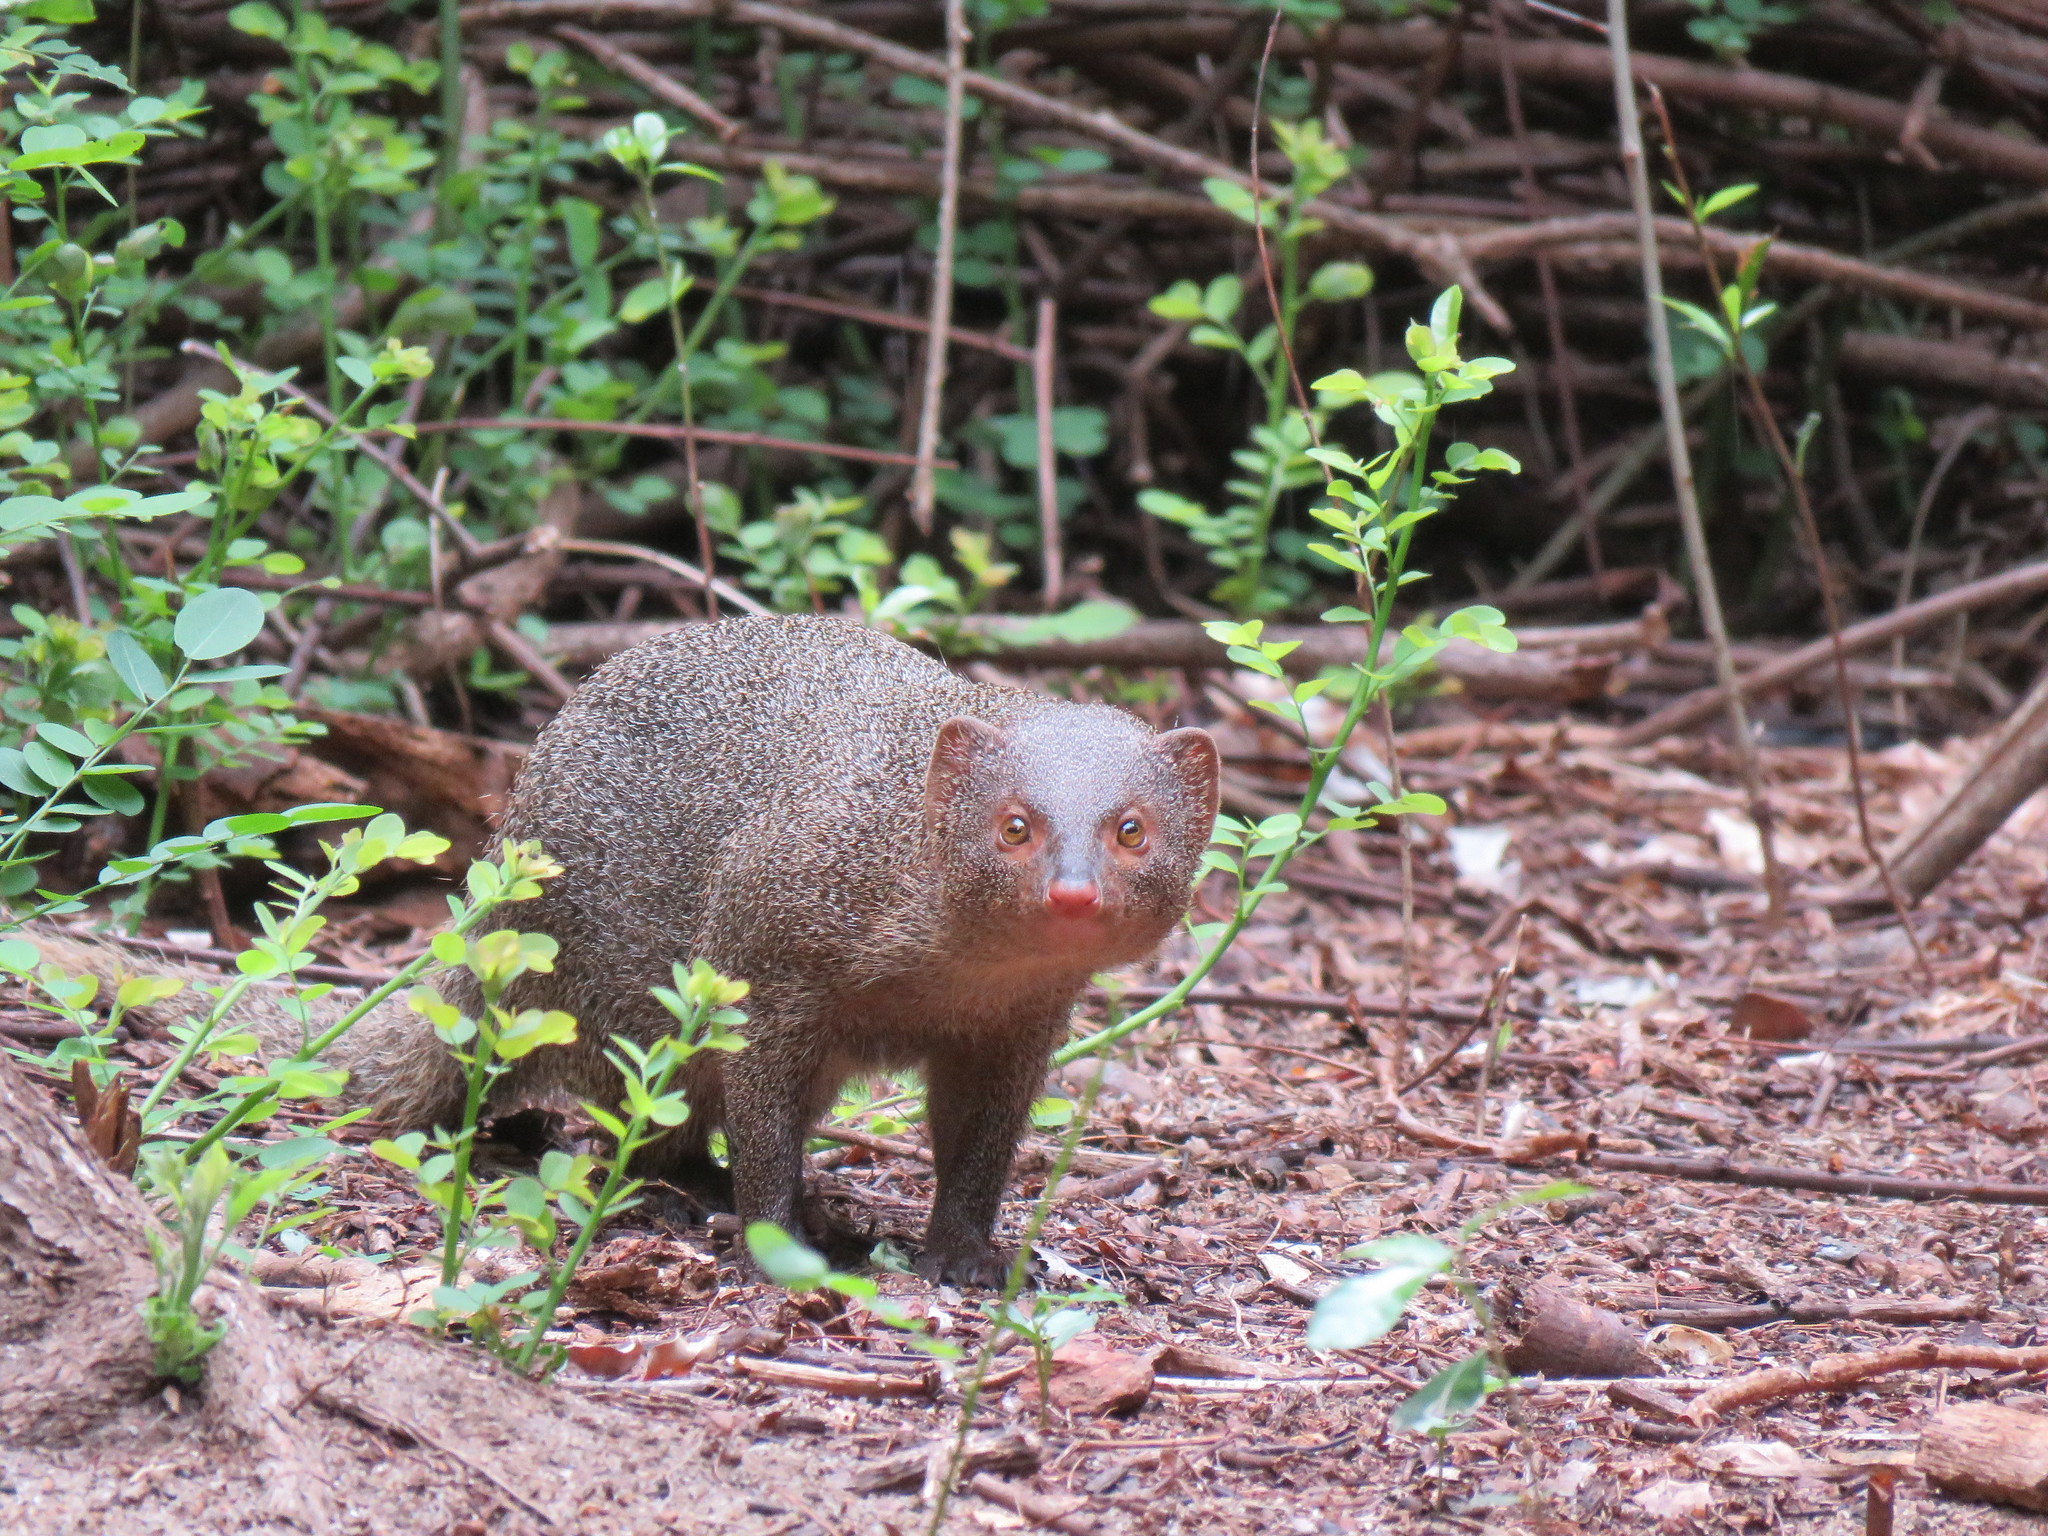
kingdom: Animalia
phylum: Chordata
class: Mammalia
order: Carnivora
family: Herpestidae
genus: Herpestes
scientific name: Herpestes edwardsi
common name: Indian gray mongoose
